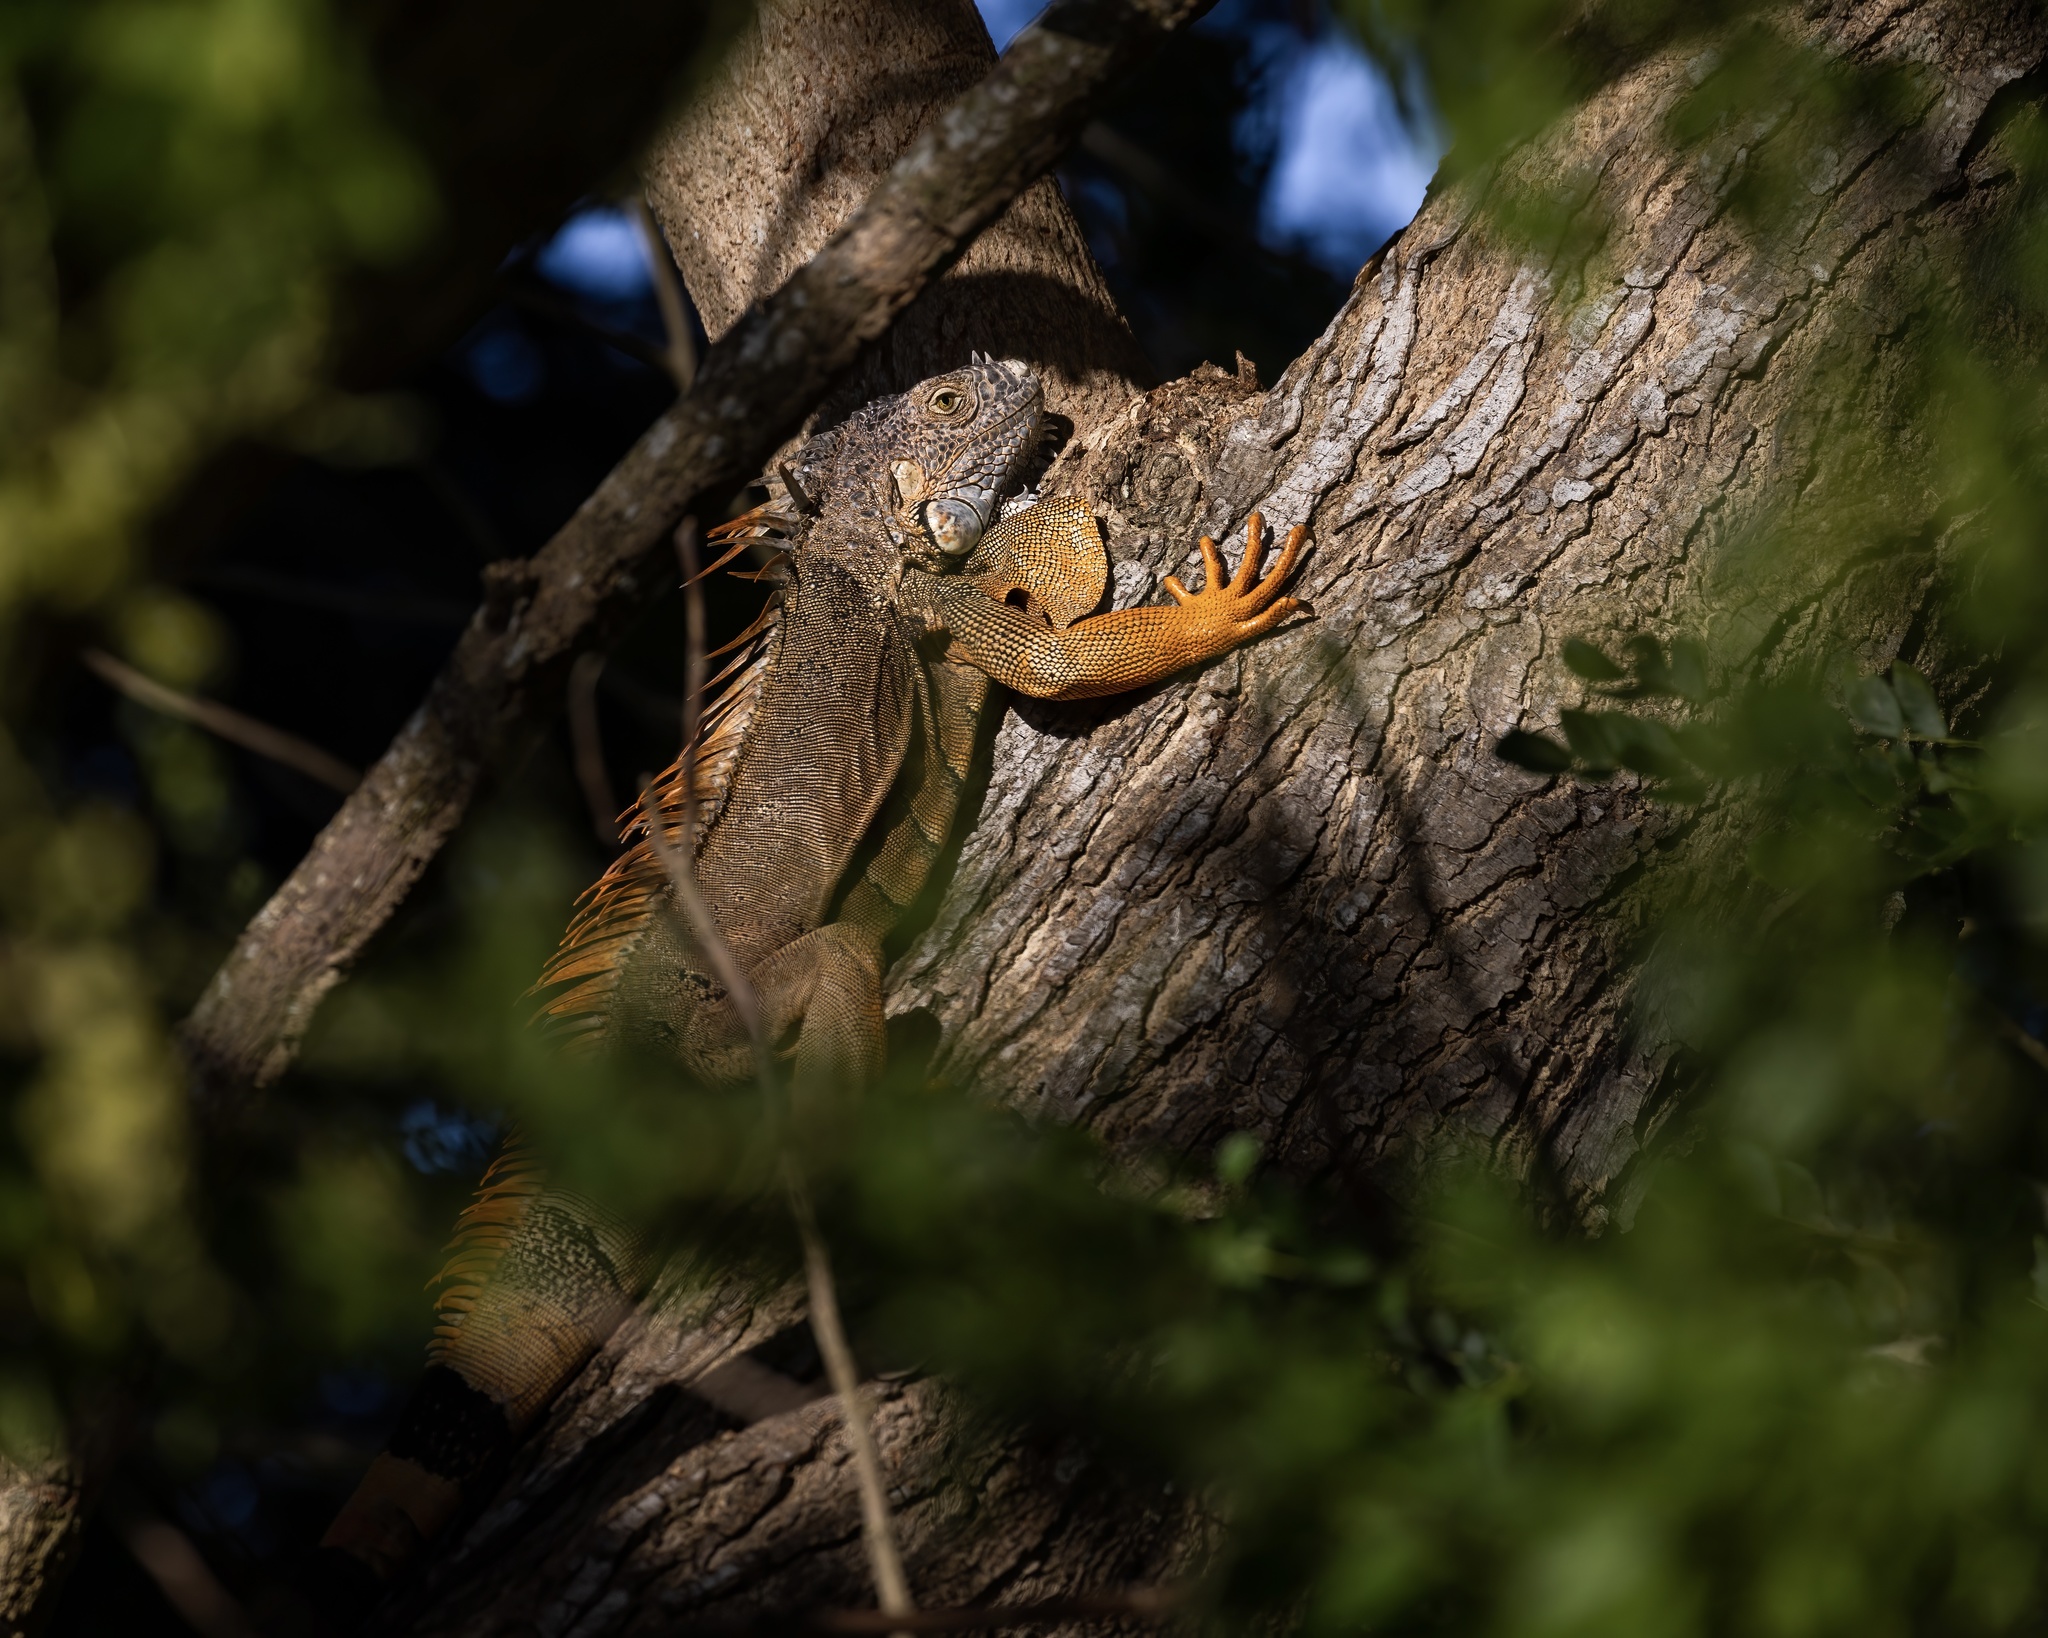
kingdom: Animalia
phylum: Chordata
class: Squamata
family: Iguanidae
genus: Iguana
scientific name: Iguana iguana
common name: Green iguana
